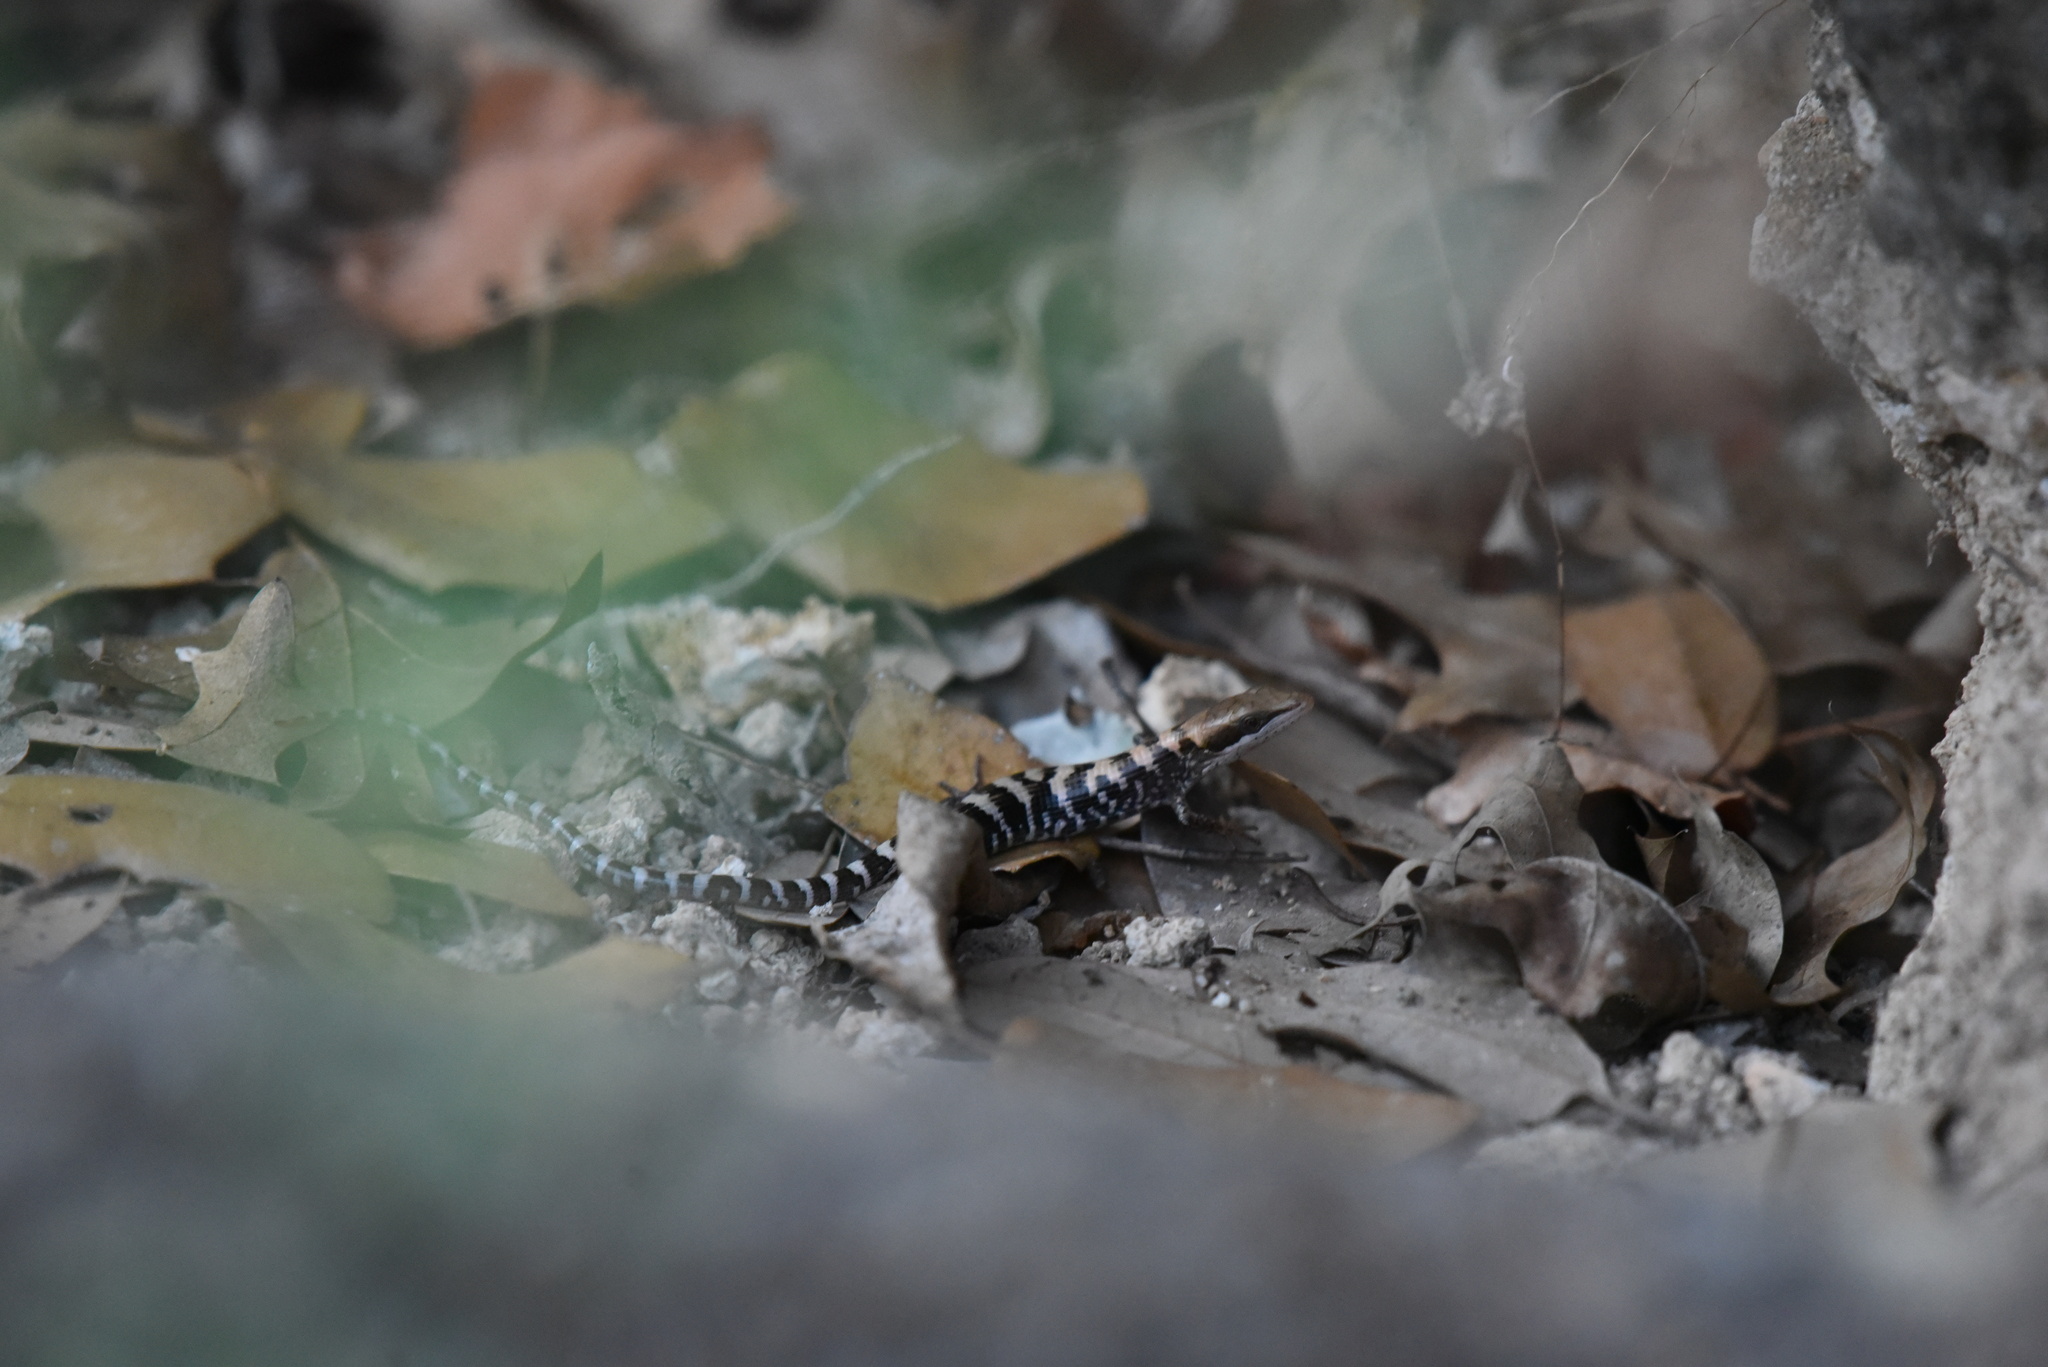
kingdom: Animalia
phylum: Chordata
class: Squamata
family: Anguidae
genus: Gerrhonotus
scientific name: Gerrhonotus infernalis
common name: Texas alligator lizard
